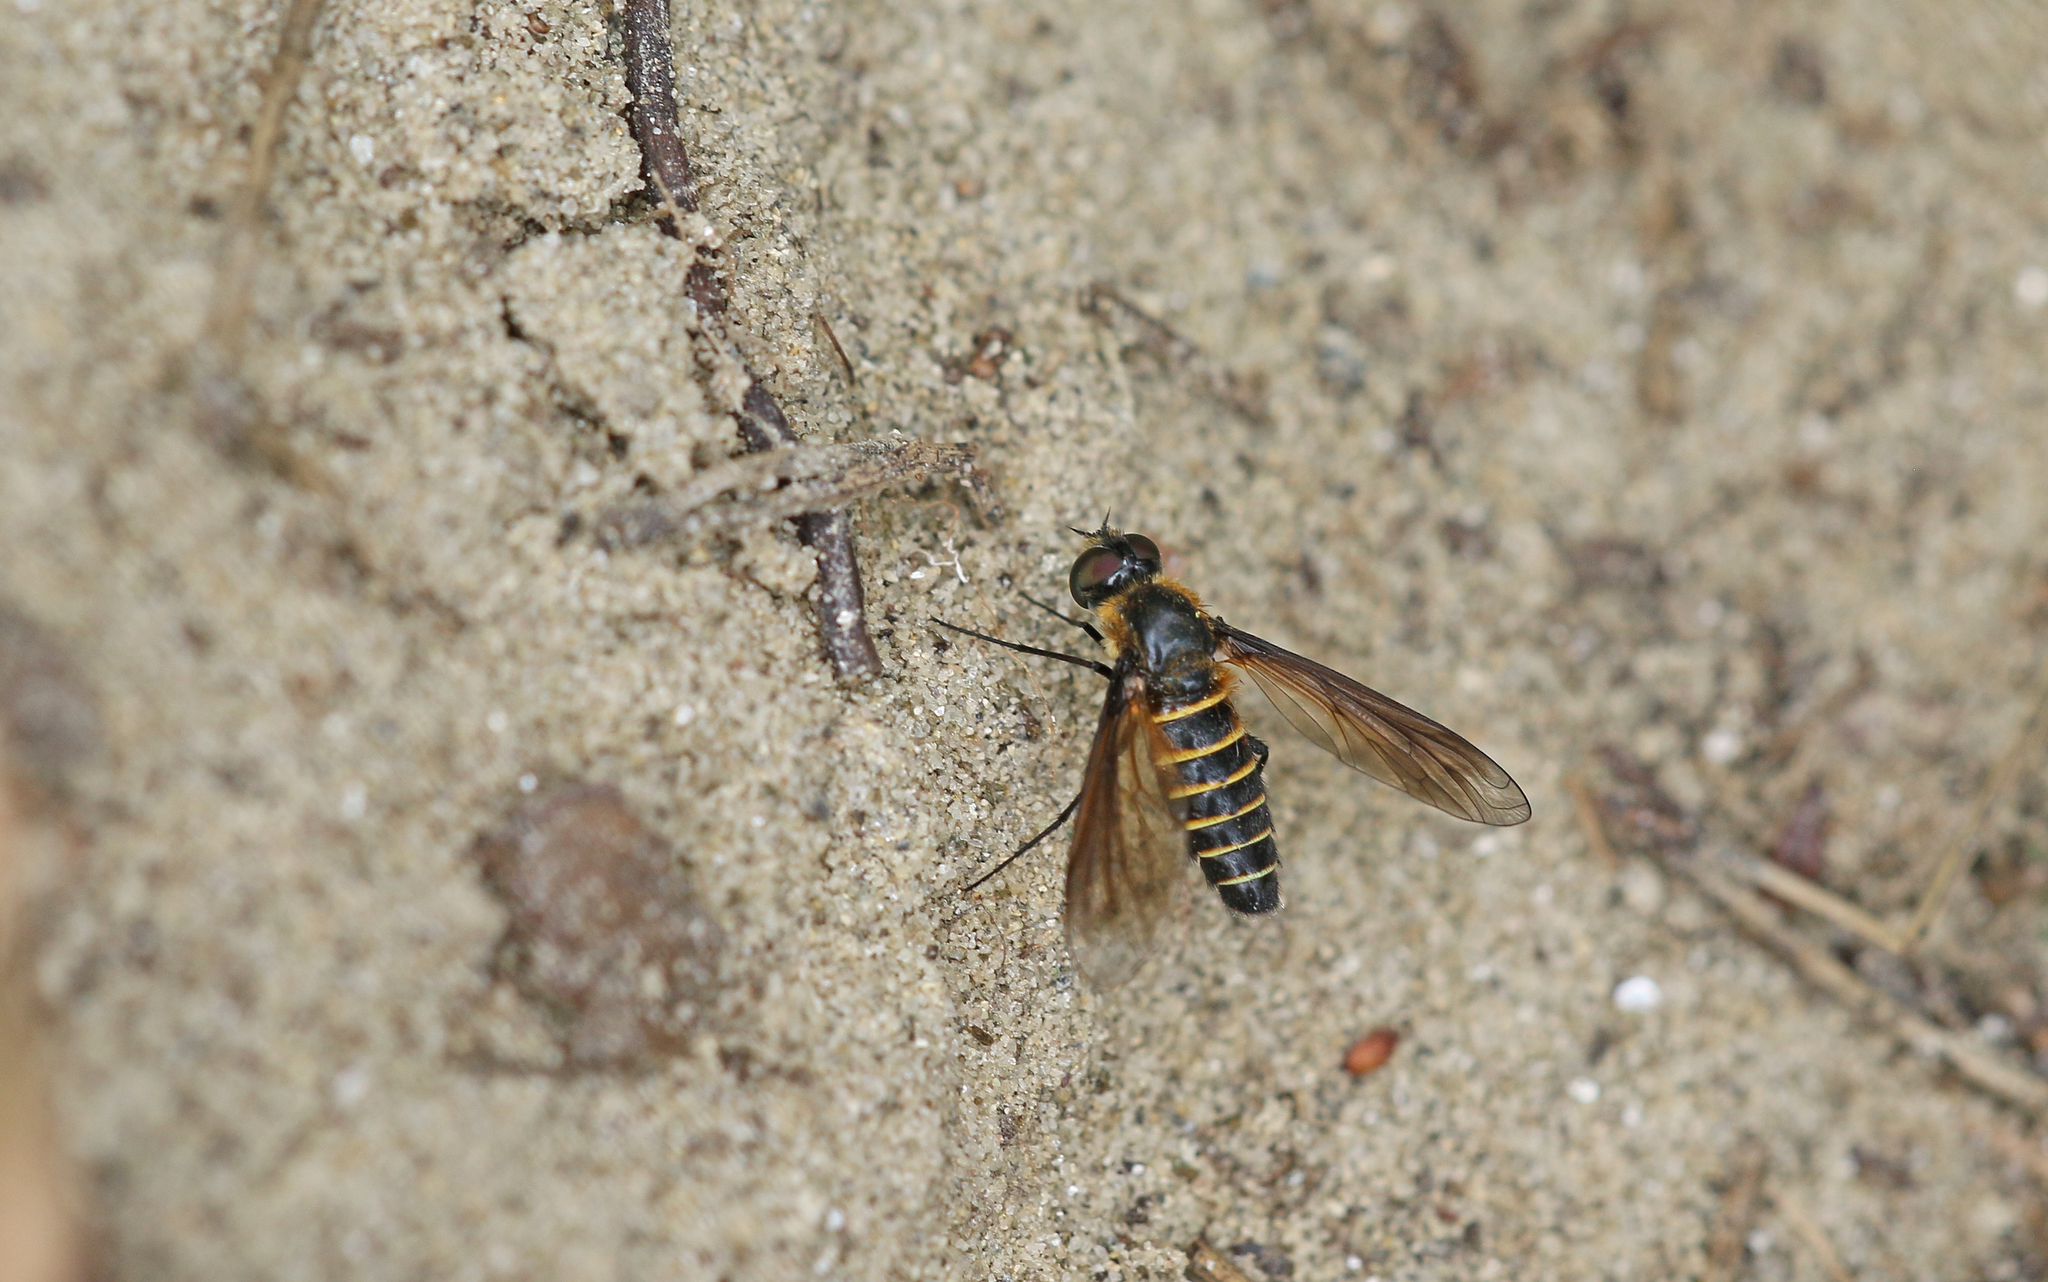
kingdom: Animalia
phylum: Arthropoda
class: Insecta
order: Diptera
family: Bombyliidae
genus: Lomatia
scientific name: Lomatia lateralis
